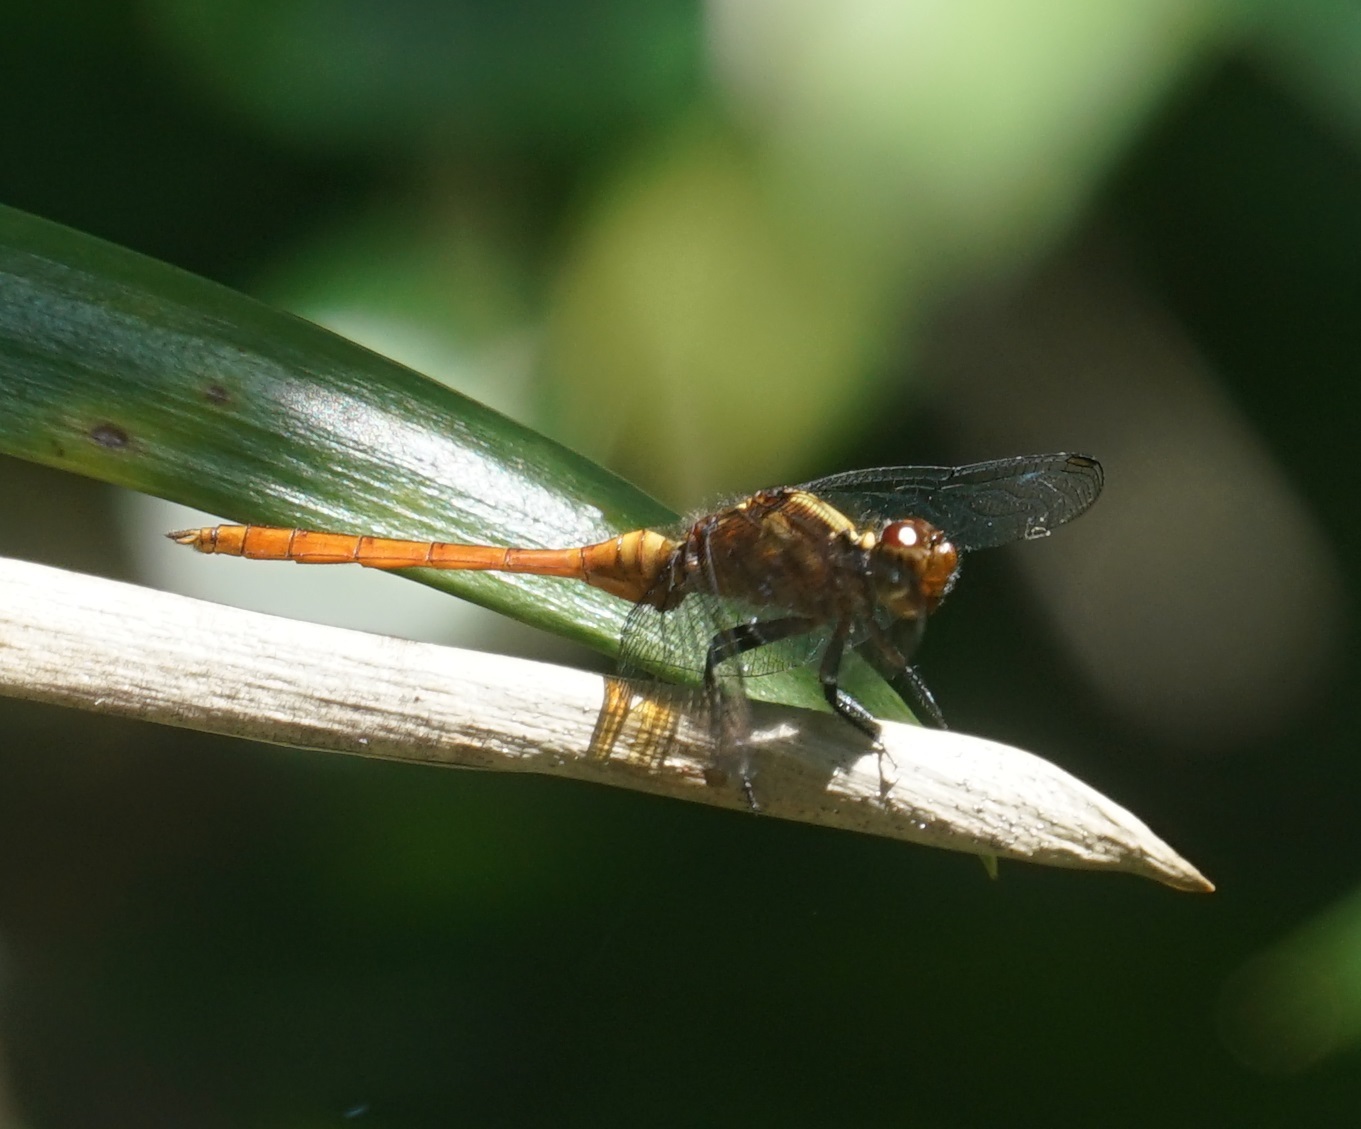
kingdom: Animalia
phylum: Arthropoda
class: Insecta
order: Odonata
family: Libellulidae
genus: Orthetrum
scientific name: Orthetrum villosovittatum
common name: Firery skimmer
